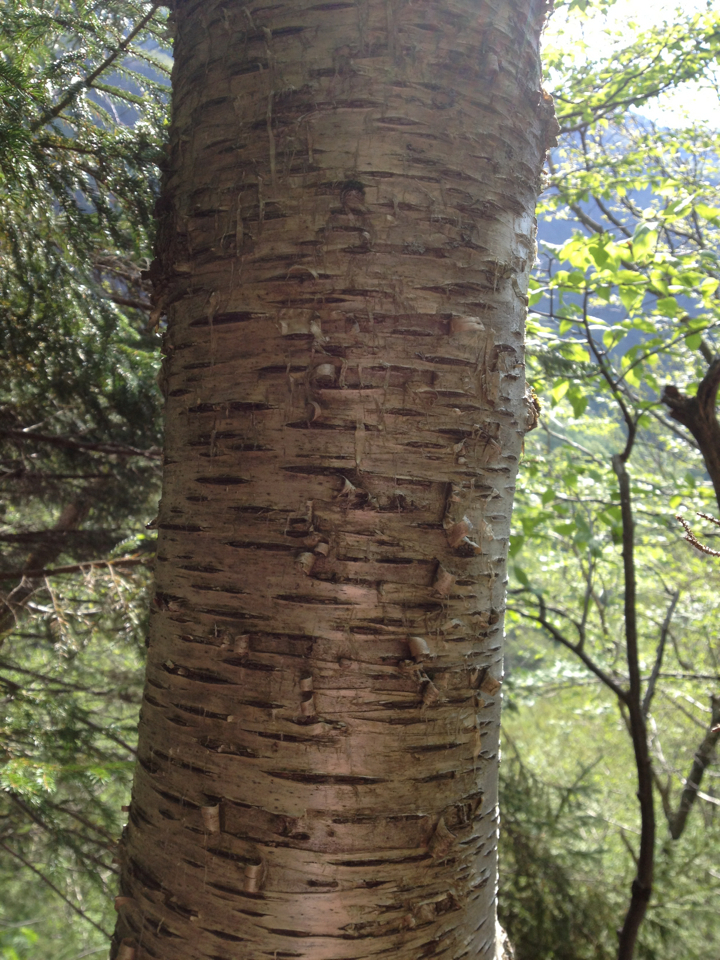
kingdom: Plantae
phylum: Tracheophyta
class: Magnoliopsida
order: Fagales
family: Betulaceae
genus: Betula
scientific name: Betula alleghaniensis
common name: Yellow birch
